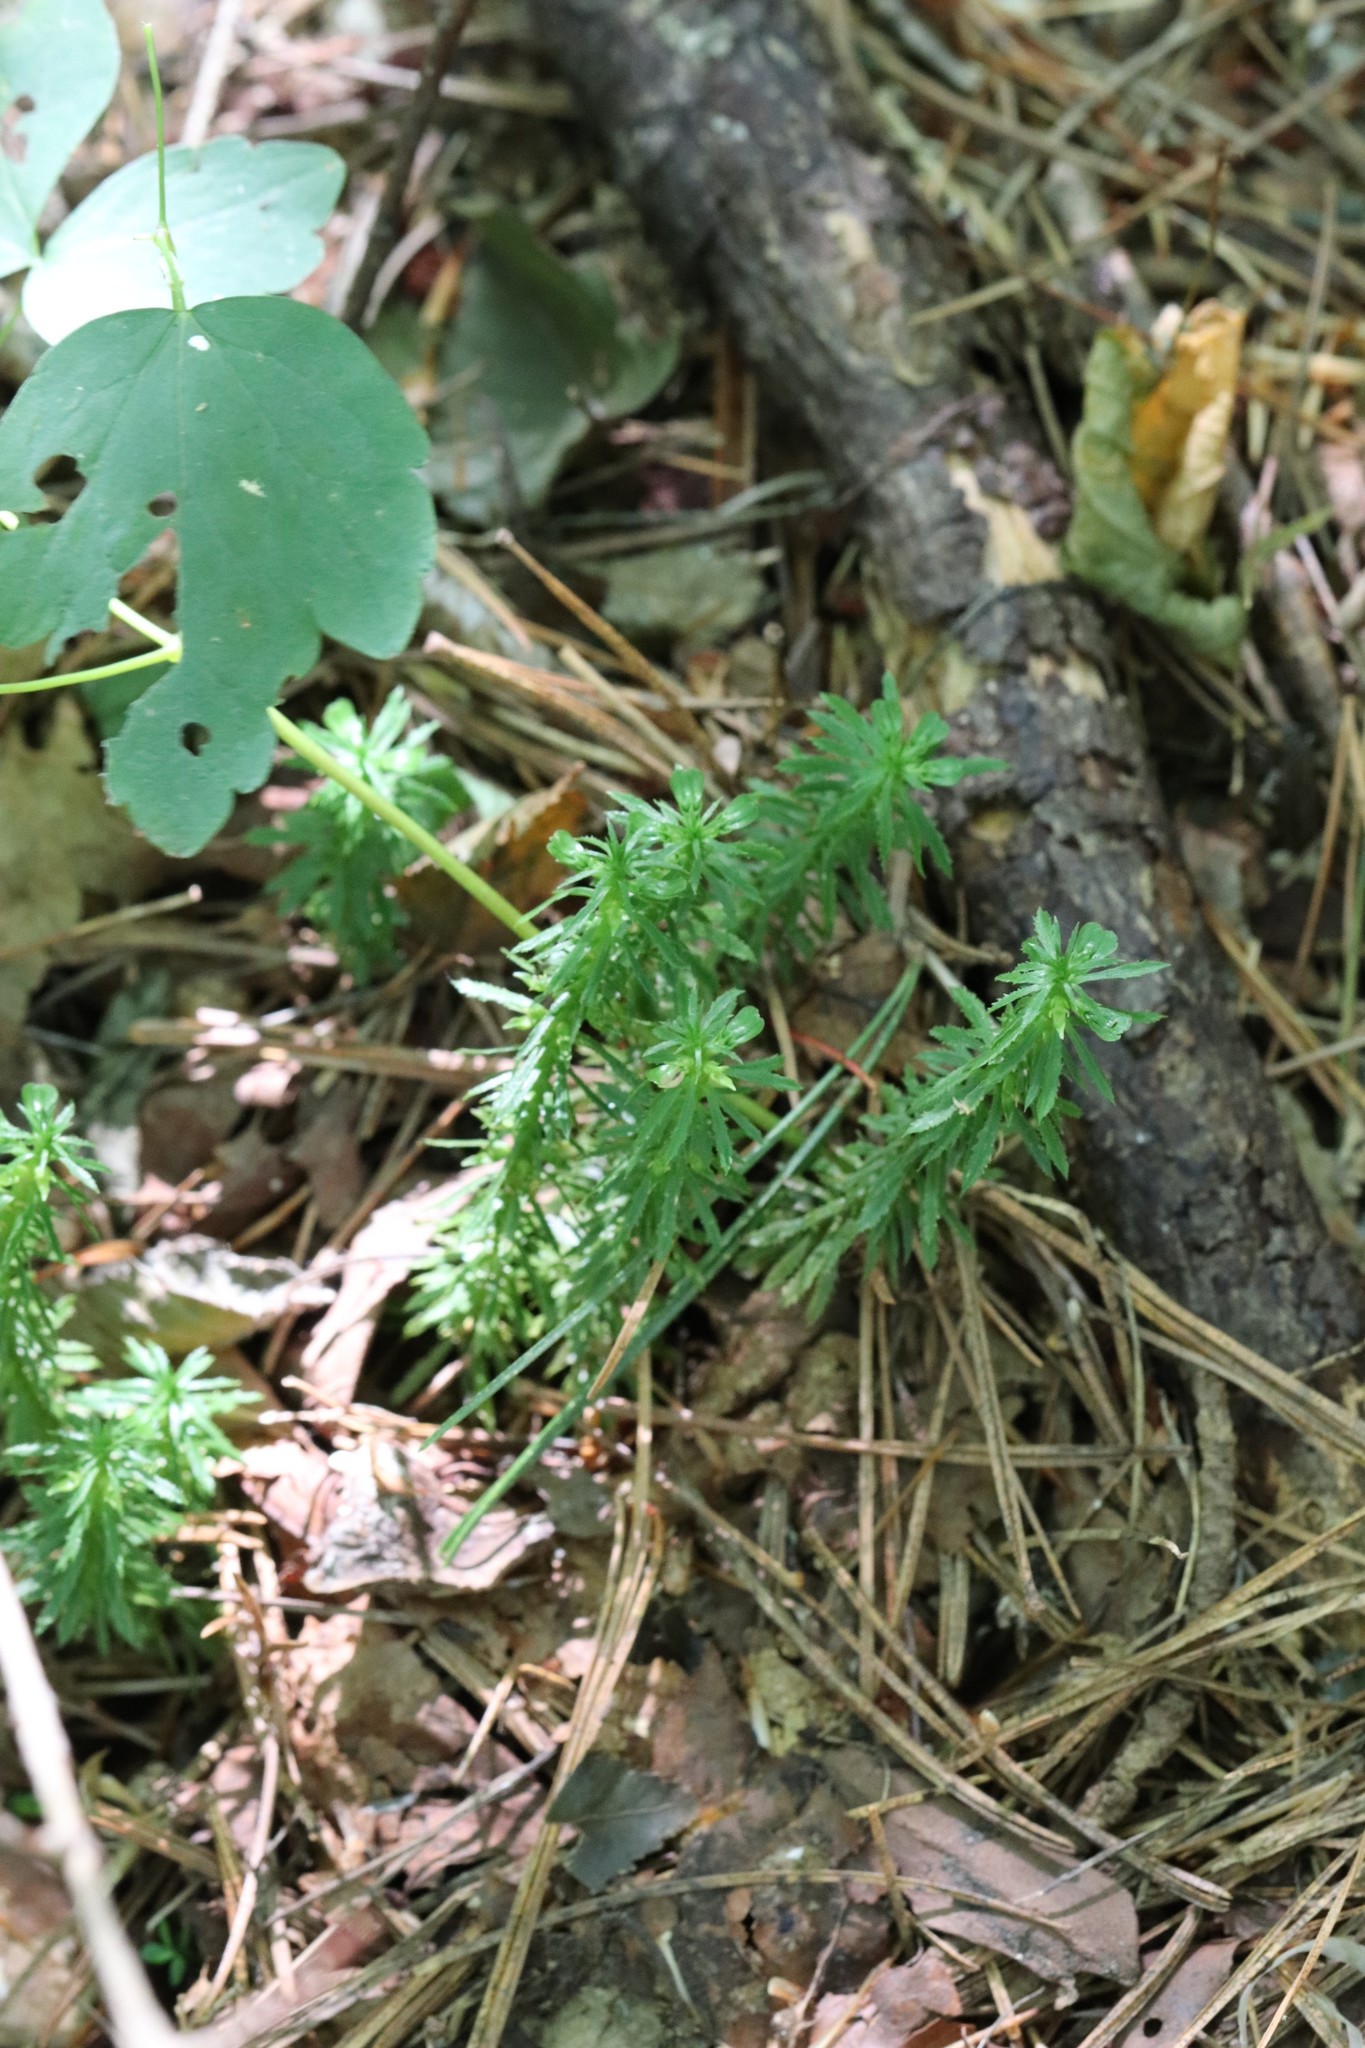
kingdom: Plantae
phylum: Tracheophyta
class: Lycopodiopsida
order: Lycopodiales
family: Lycopodiaceae
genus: Huperzia
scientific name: Huperzia serrata
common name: Toothed club-moss
